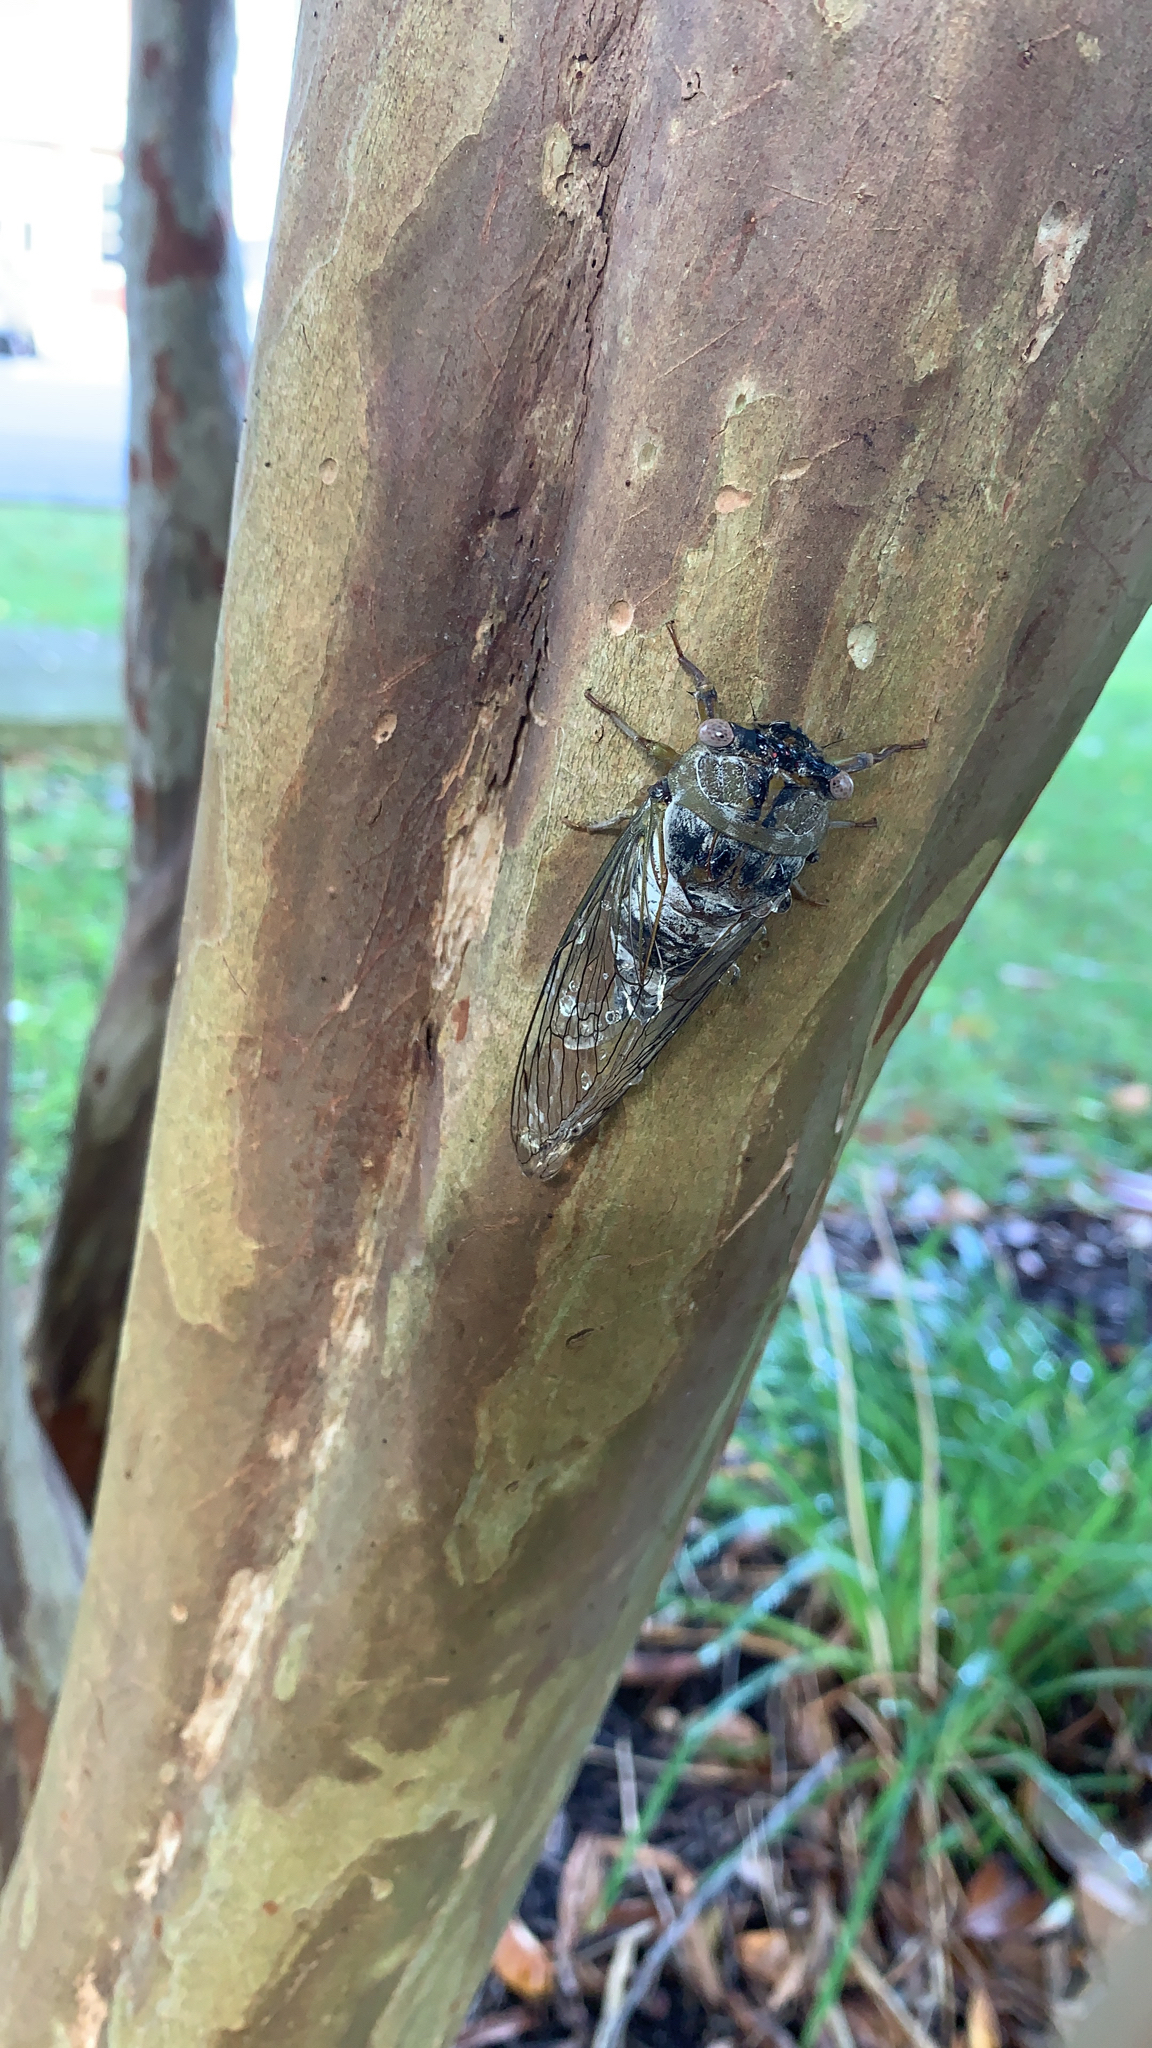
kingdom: Animalia
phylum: Arthropoda
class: Insecta
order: Hemiptera
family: Cicadidae
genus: Diceroprocta
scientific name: Diceroprocta grossa
